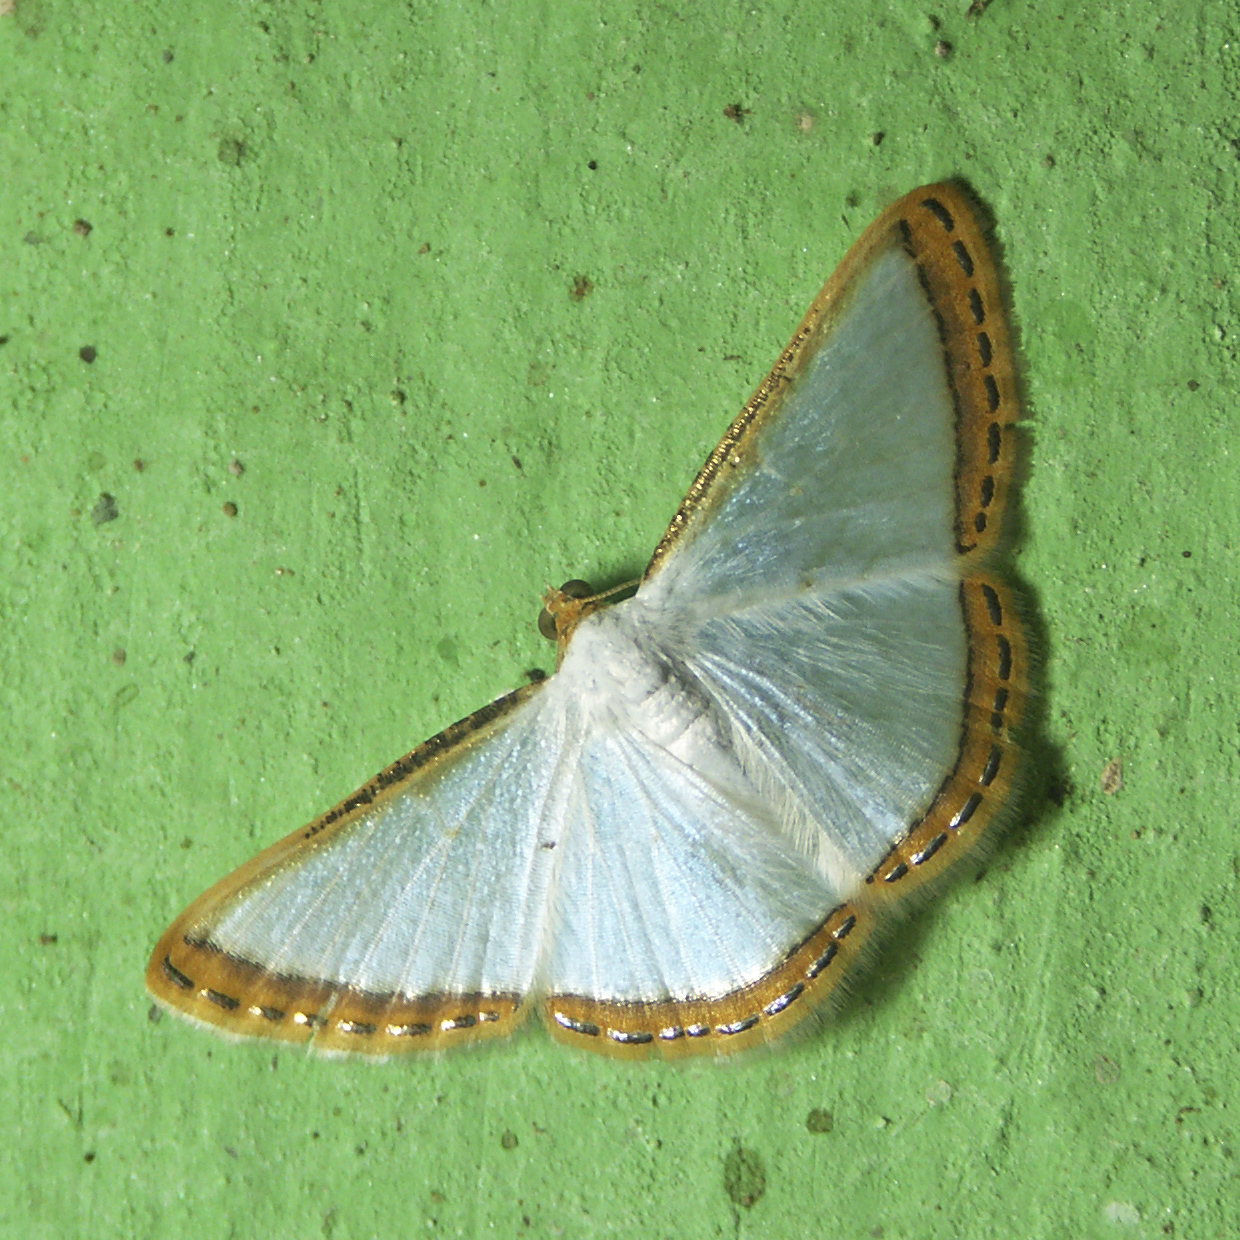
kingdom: Animalia
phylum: Arthropoda
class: Insecta
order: Lepidoptera
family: Geometridae
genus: Leuciris
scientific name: Leuciris fimbriaria
